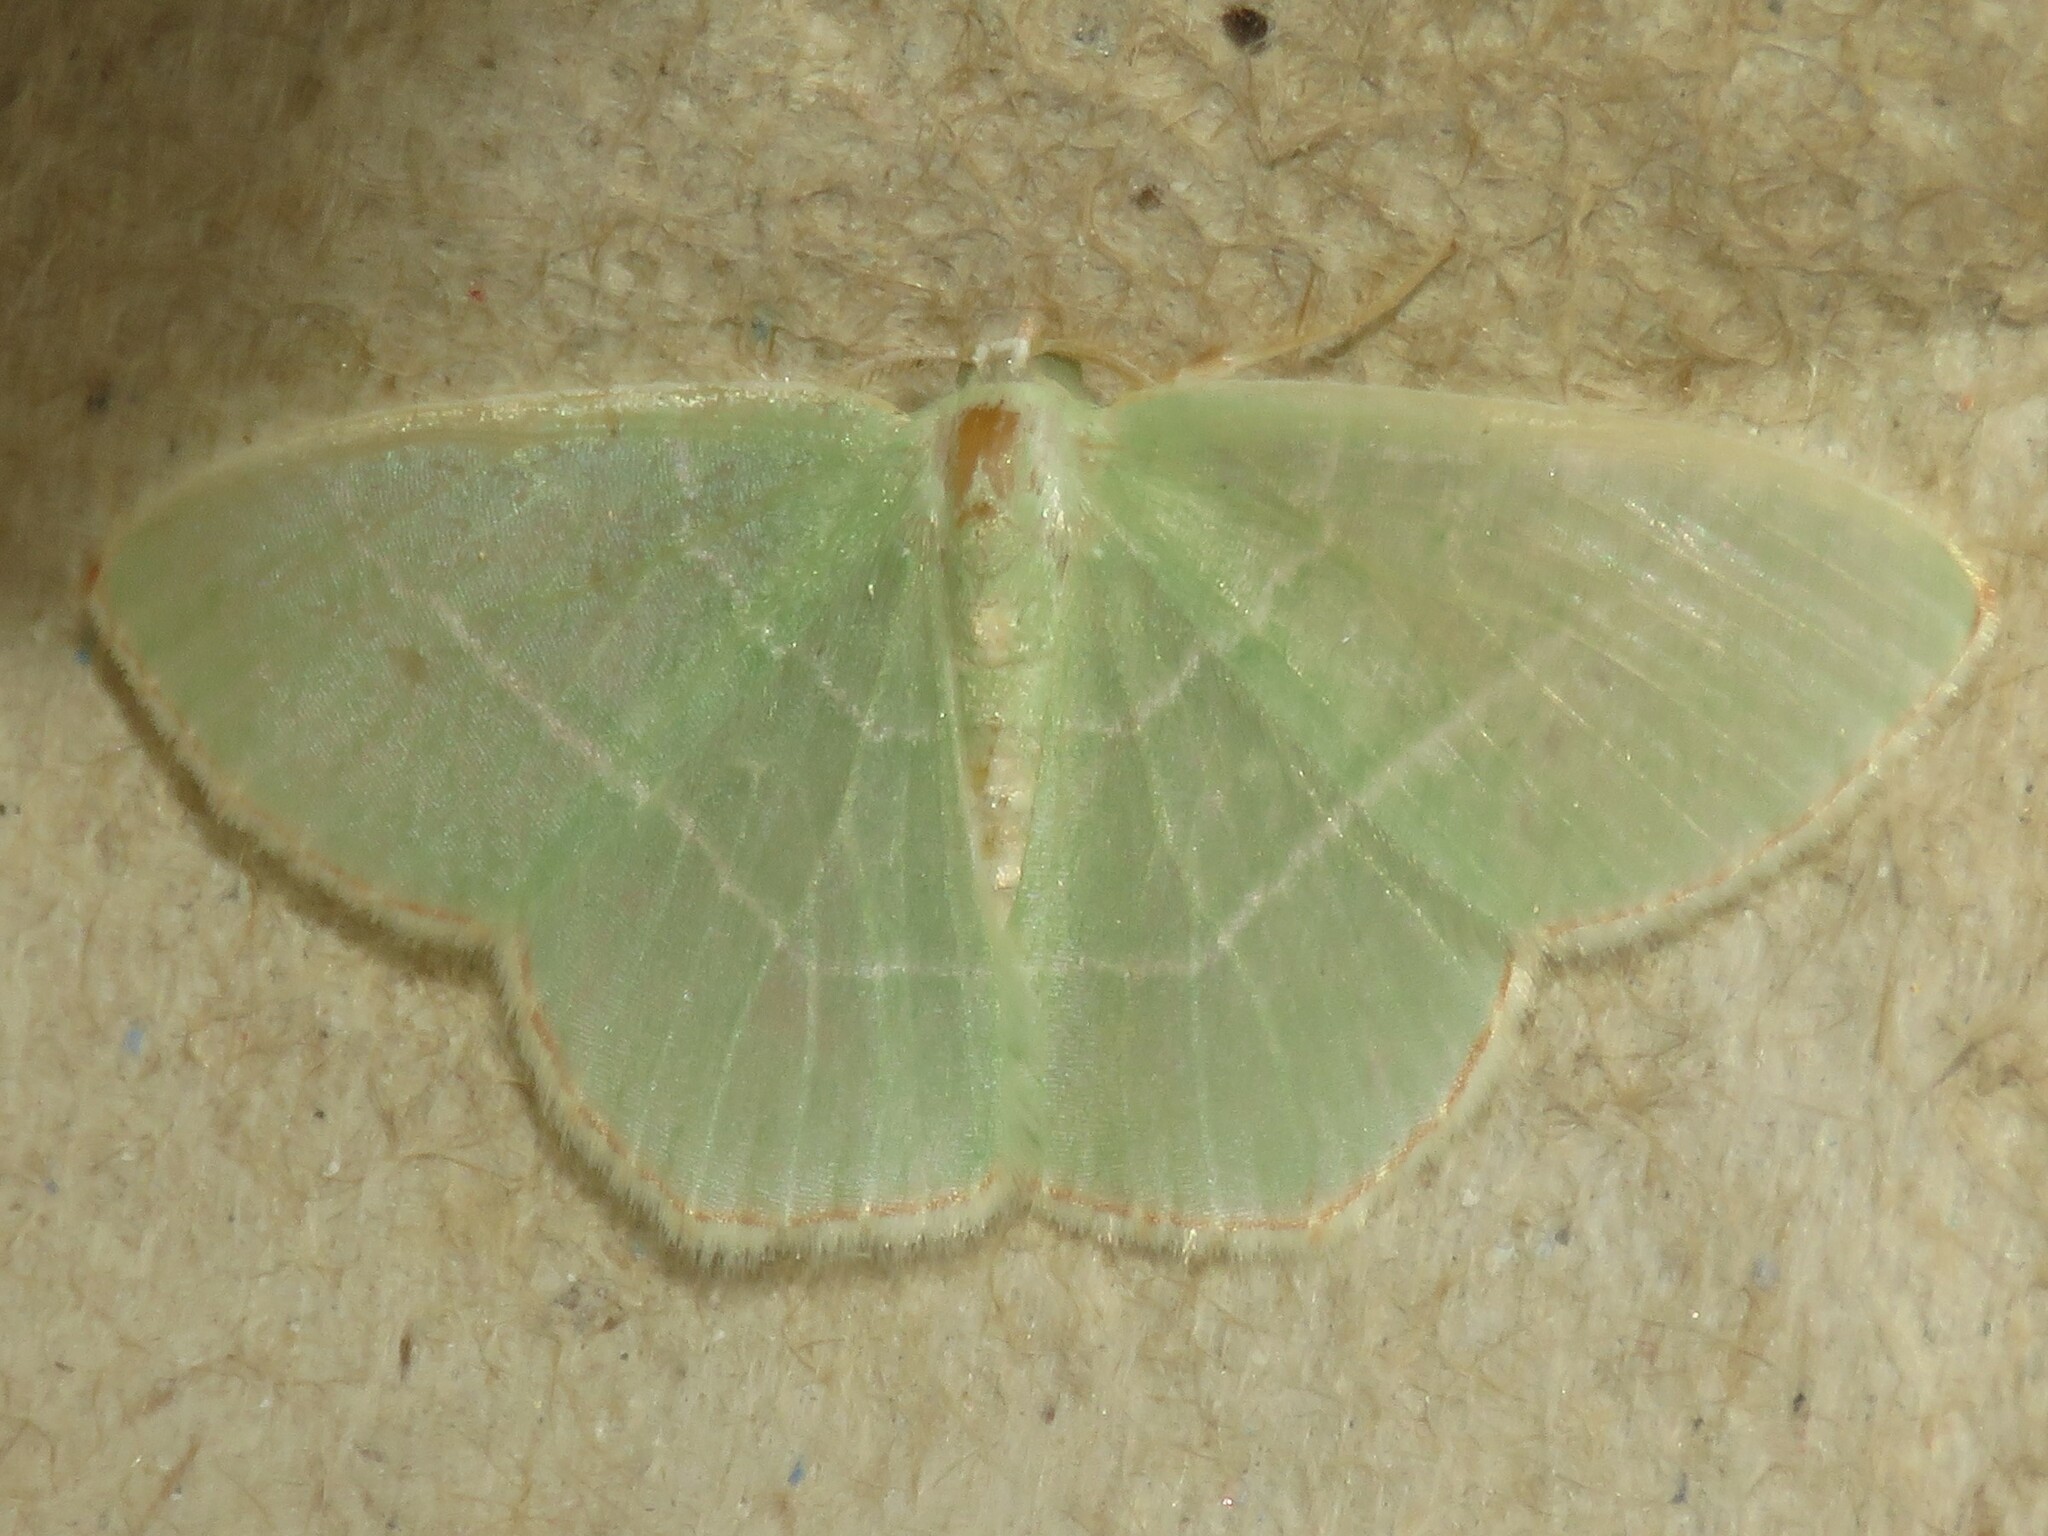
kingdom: Animalia
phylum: Arthropoda
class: Insecta
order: Lepidoptera
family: Geometridae
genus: Nemoria
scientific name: Nemoria bistriaria
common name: Red-fringed emerald
